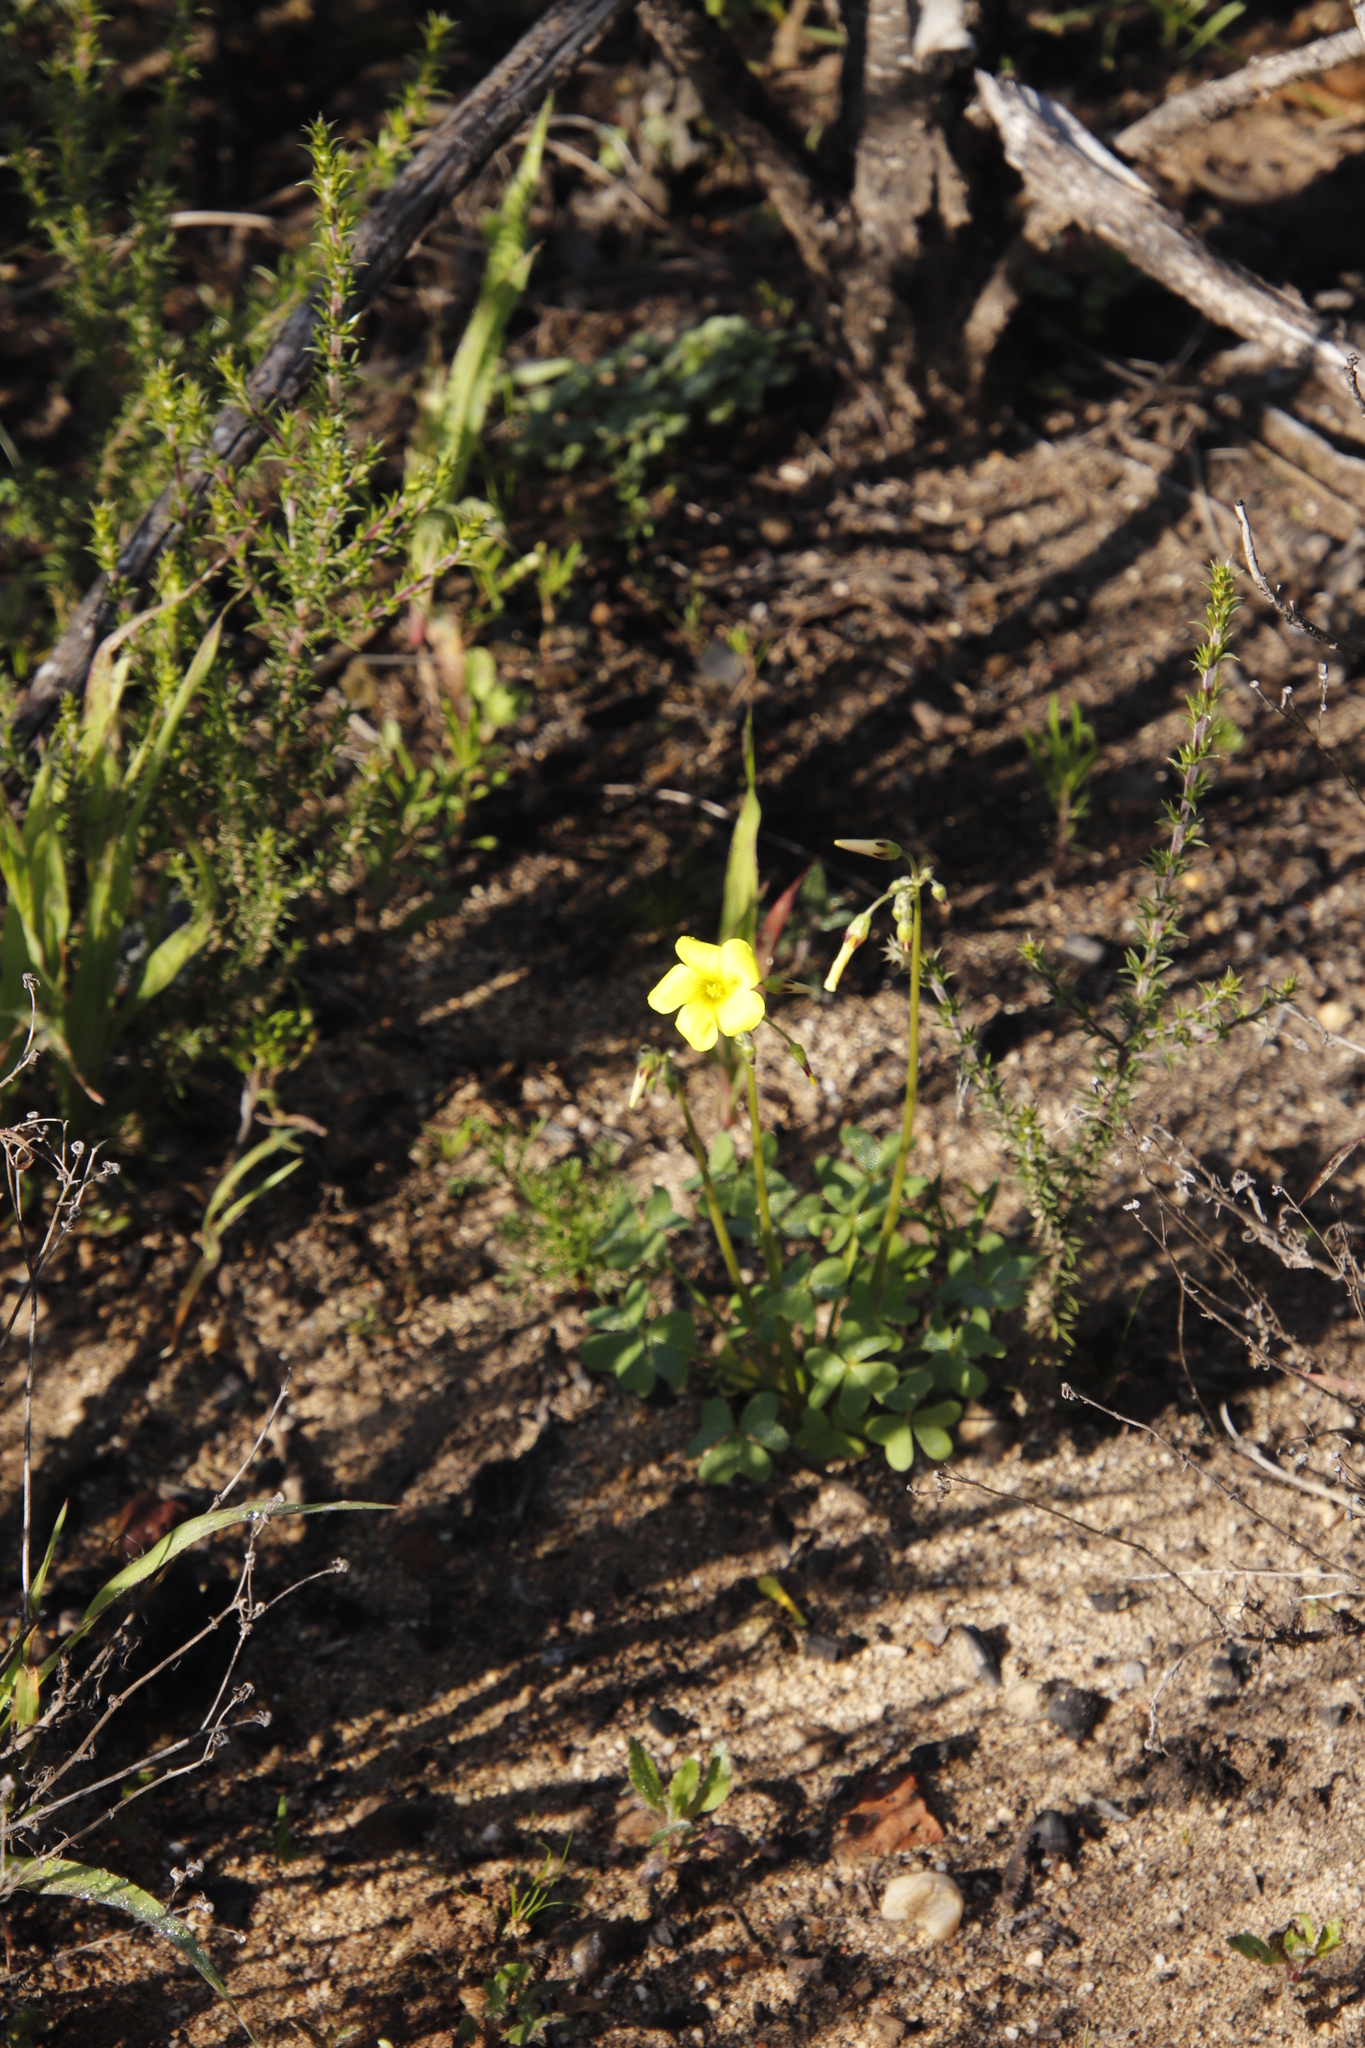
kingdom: Plantae
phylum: Tracheophyta
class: Magnoliopsida
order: Oxalidales
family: Oxalidaceae
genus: Oxalis
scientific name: Oxalis pes-caprae
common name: Bermuda-buttercup
